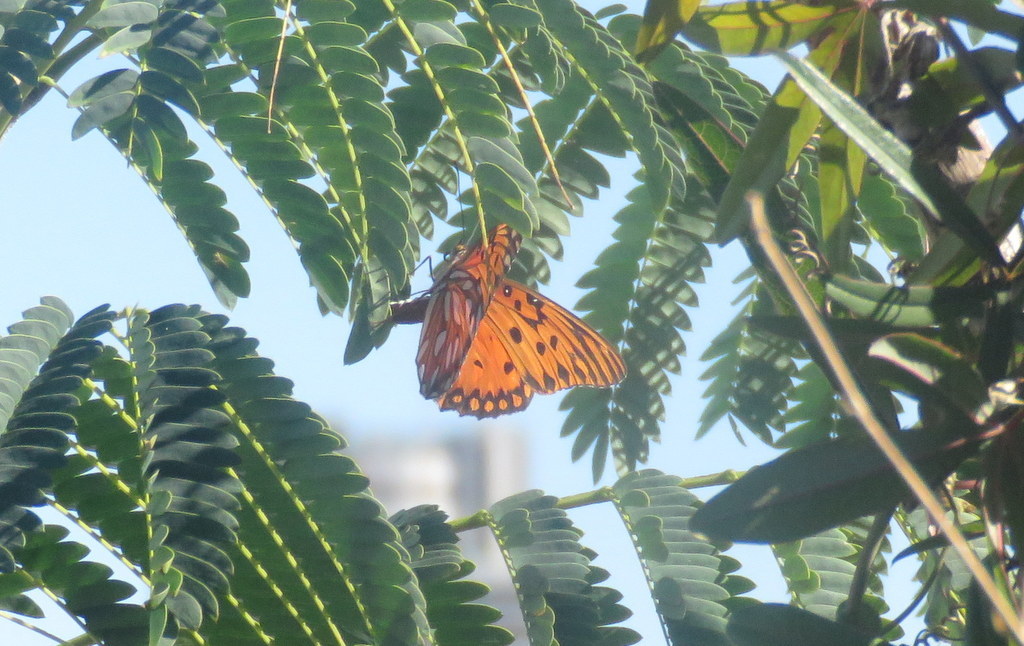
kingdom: Animalia
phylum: Arthropoda
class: Insecta
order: Lepidoptera
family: Nymphalidae
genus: Dione
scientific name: Dione vanillae
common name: Gulf fritillary
